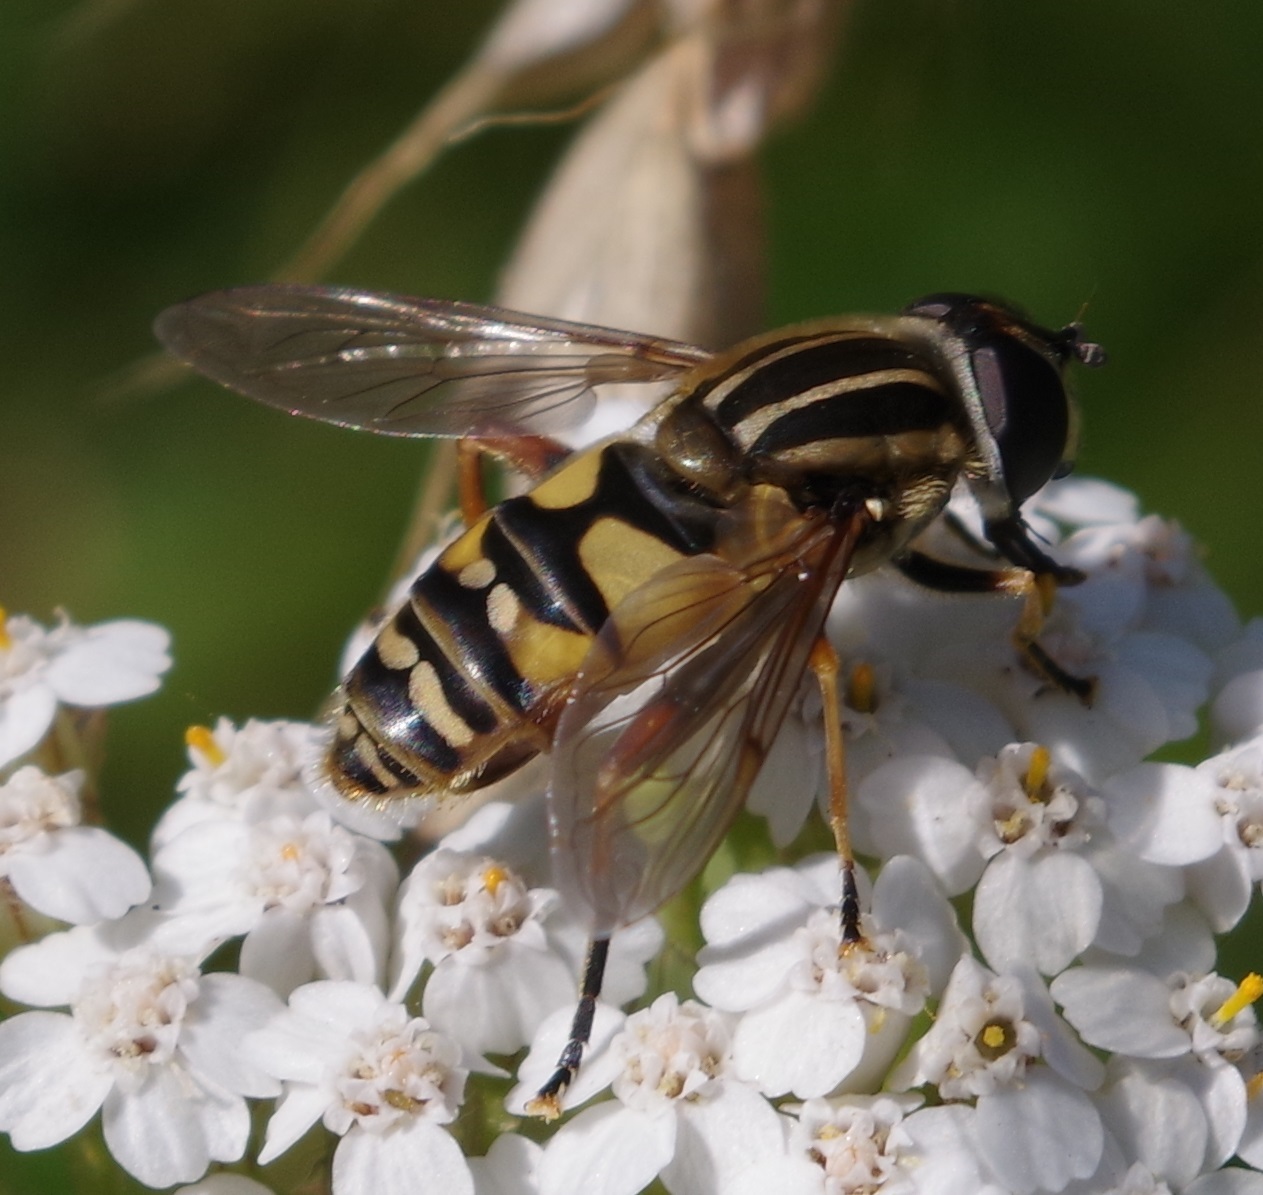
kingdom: Animalia
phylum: Arthropoda
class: Insecta
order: Diptera
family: Syrphidae
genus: Helophilus
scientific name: Helophilus pendulus
